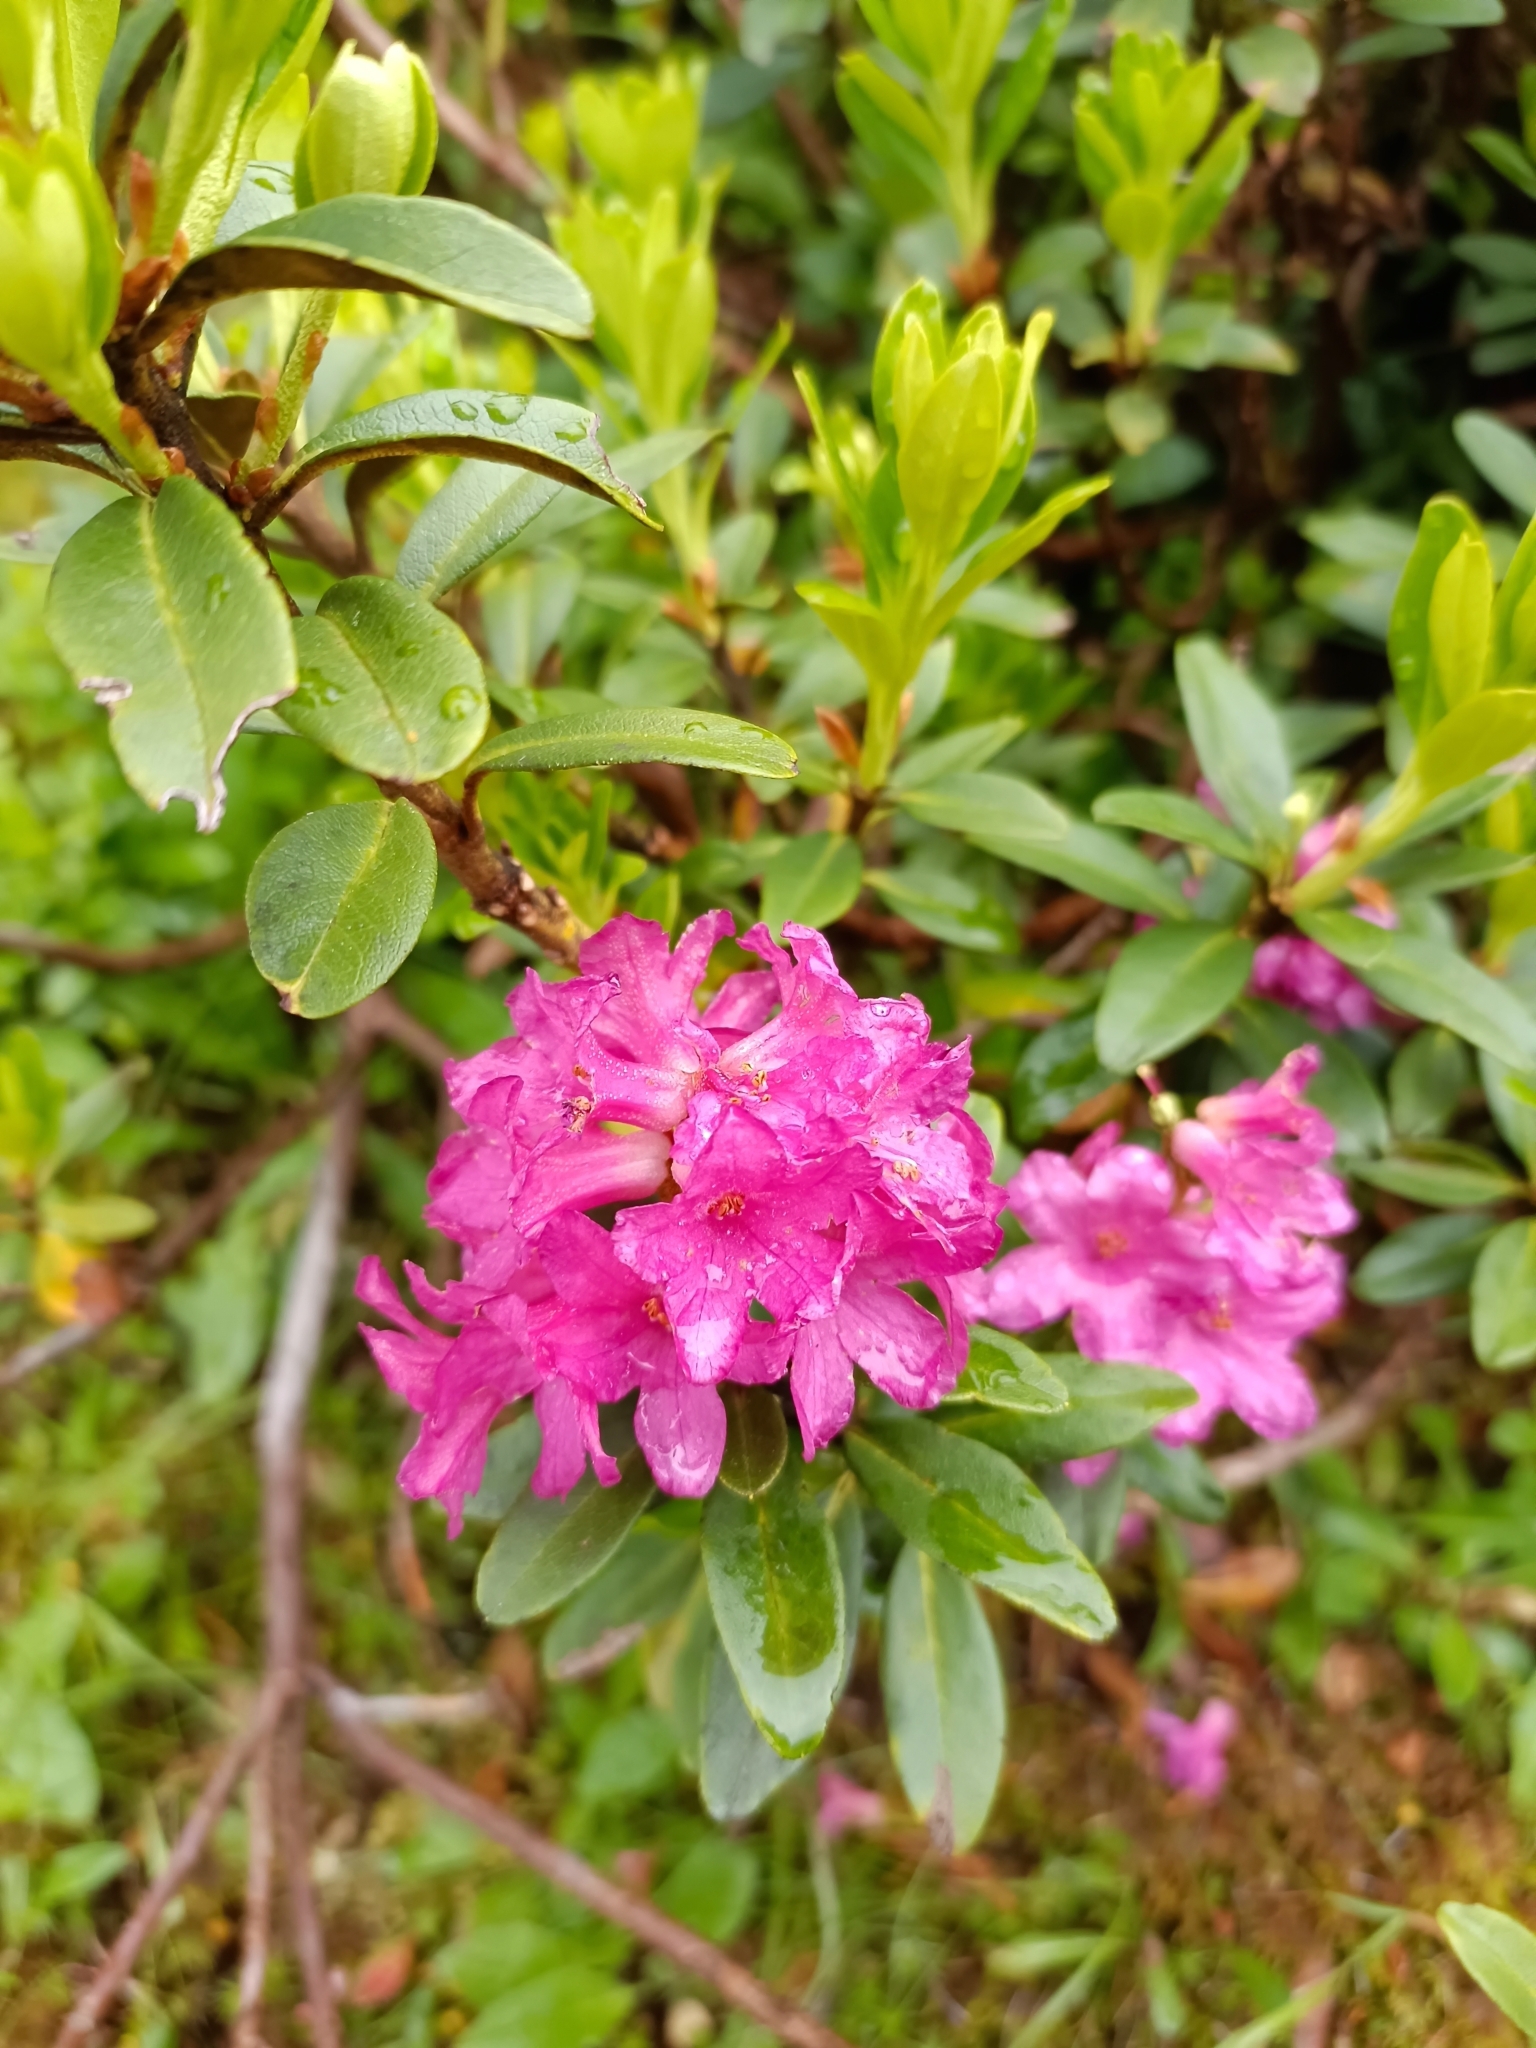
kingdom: Plantae
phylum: Tracheophyta
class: Magnoliopsida
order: Ericales
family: Ericaceae
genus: Rhododendron
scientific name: Rhododendron ferrugineum
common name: Alpenrose
